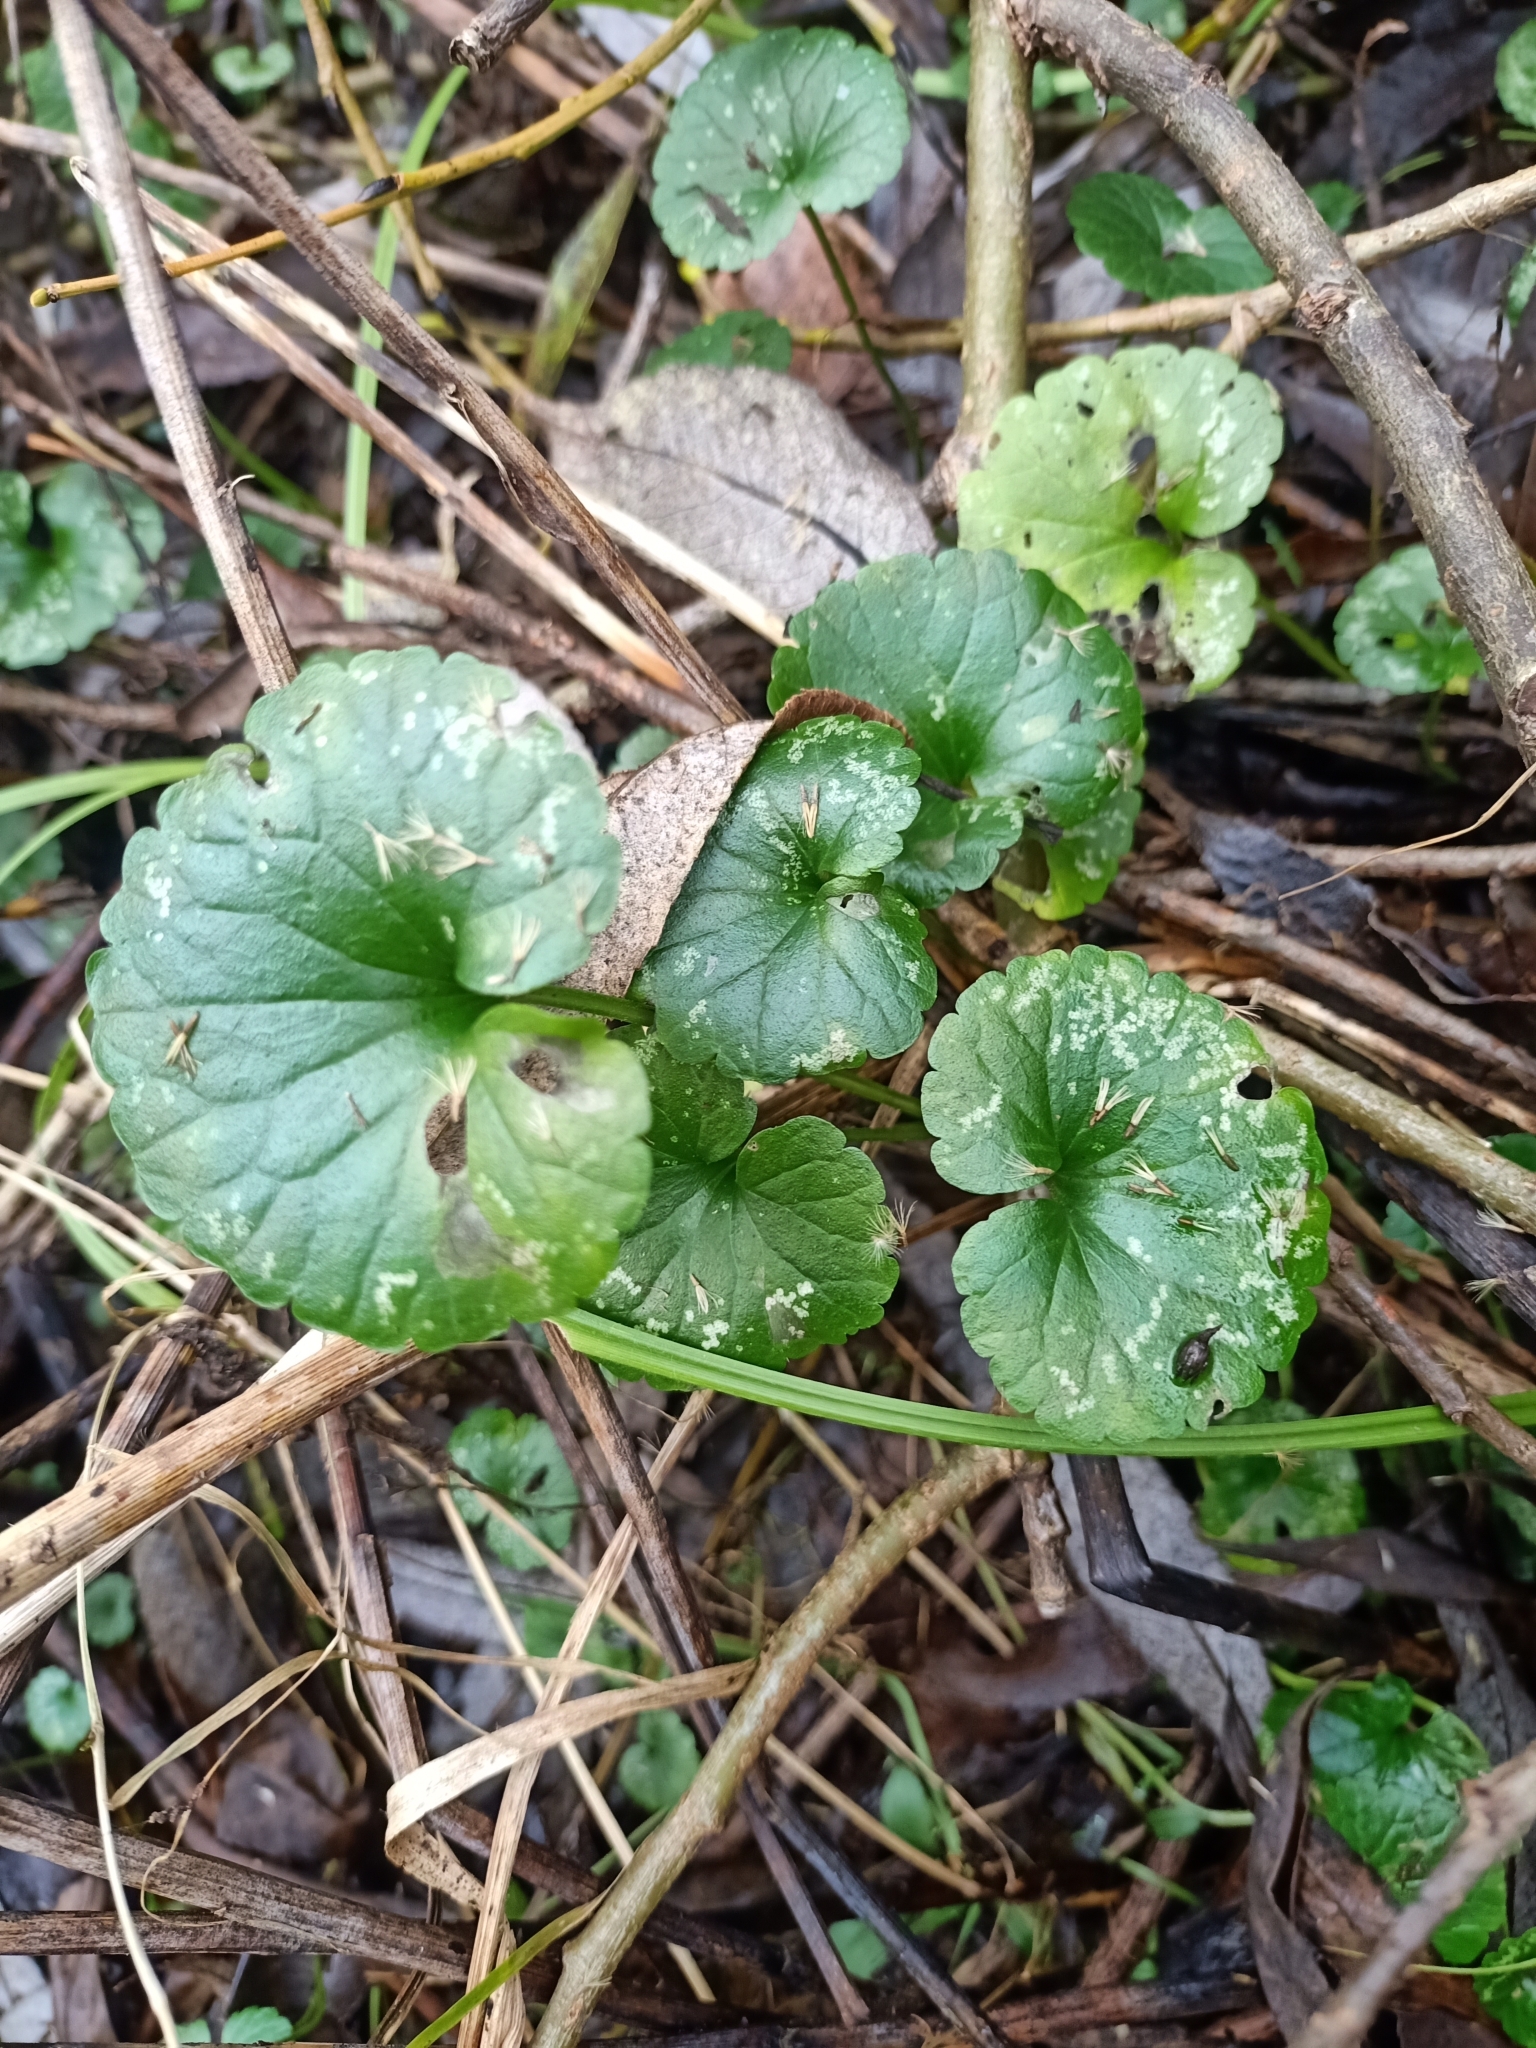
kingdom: Plantae
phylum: Tracheophyta
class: Magnoliopsida
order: Lamiales
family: Lamiaceae
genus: Glechoma
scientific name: Glechoma hederacea
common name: Ground ivy
